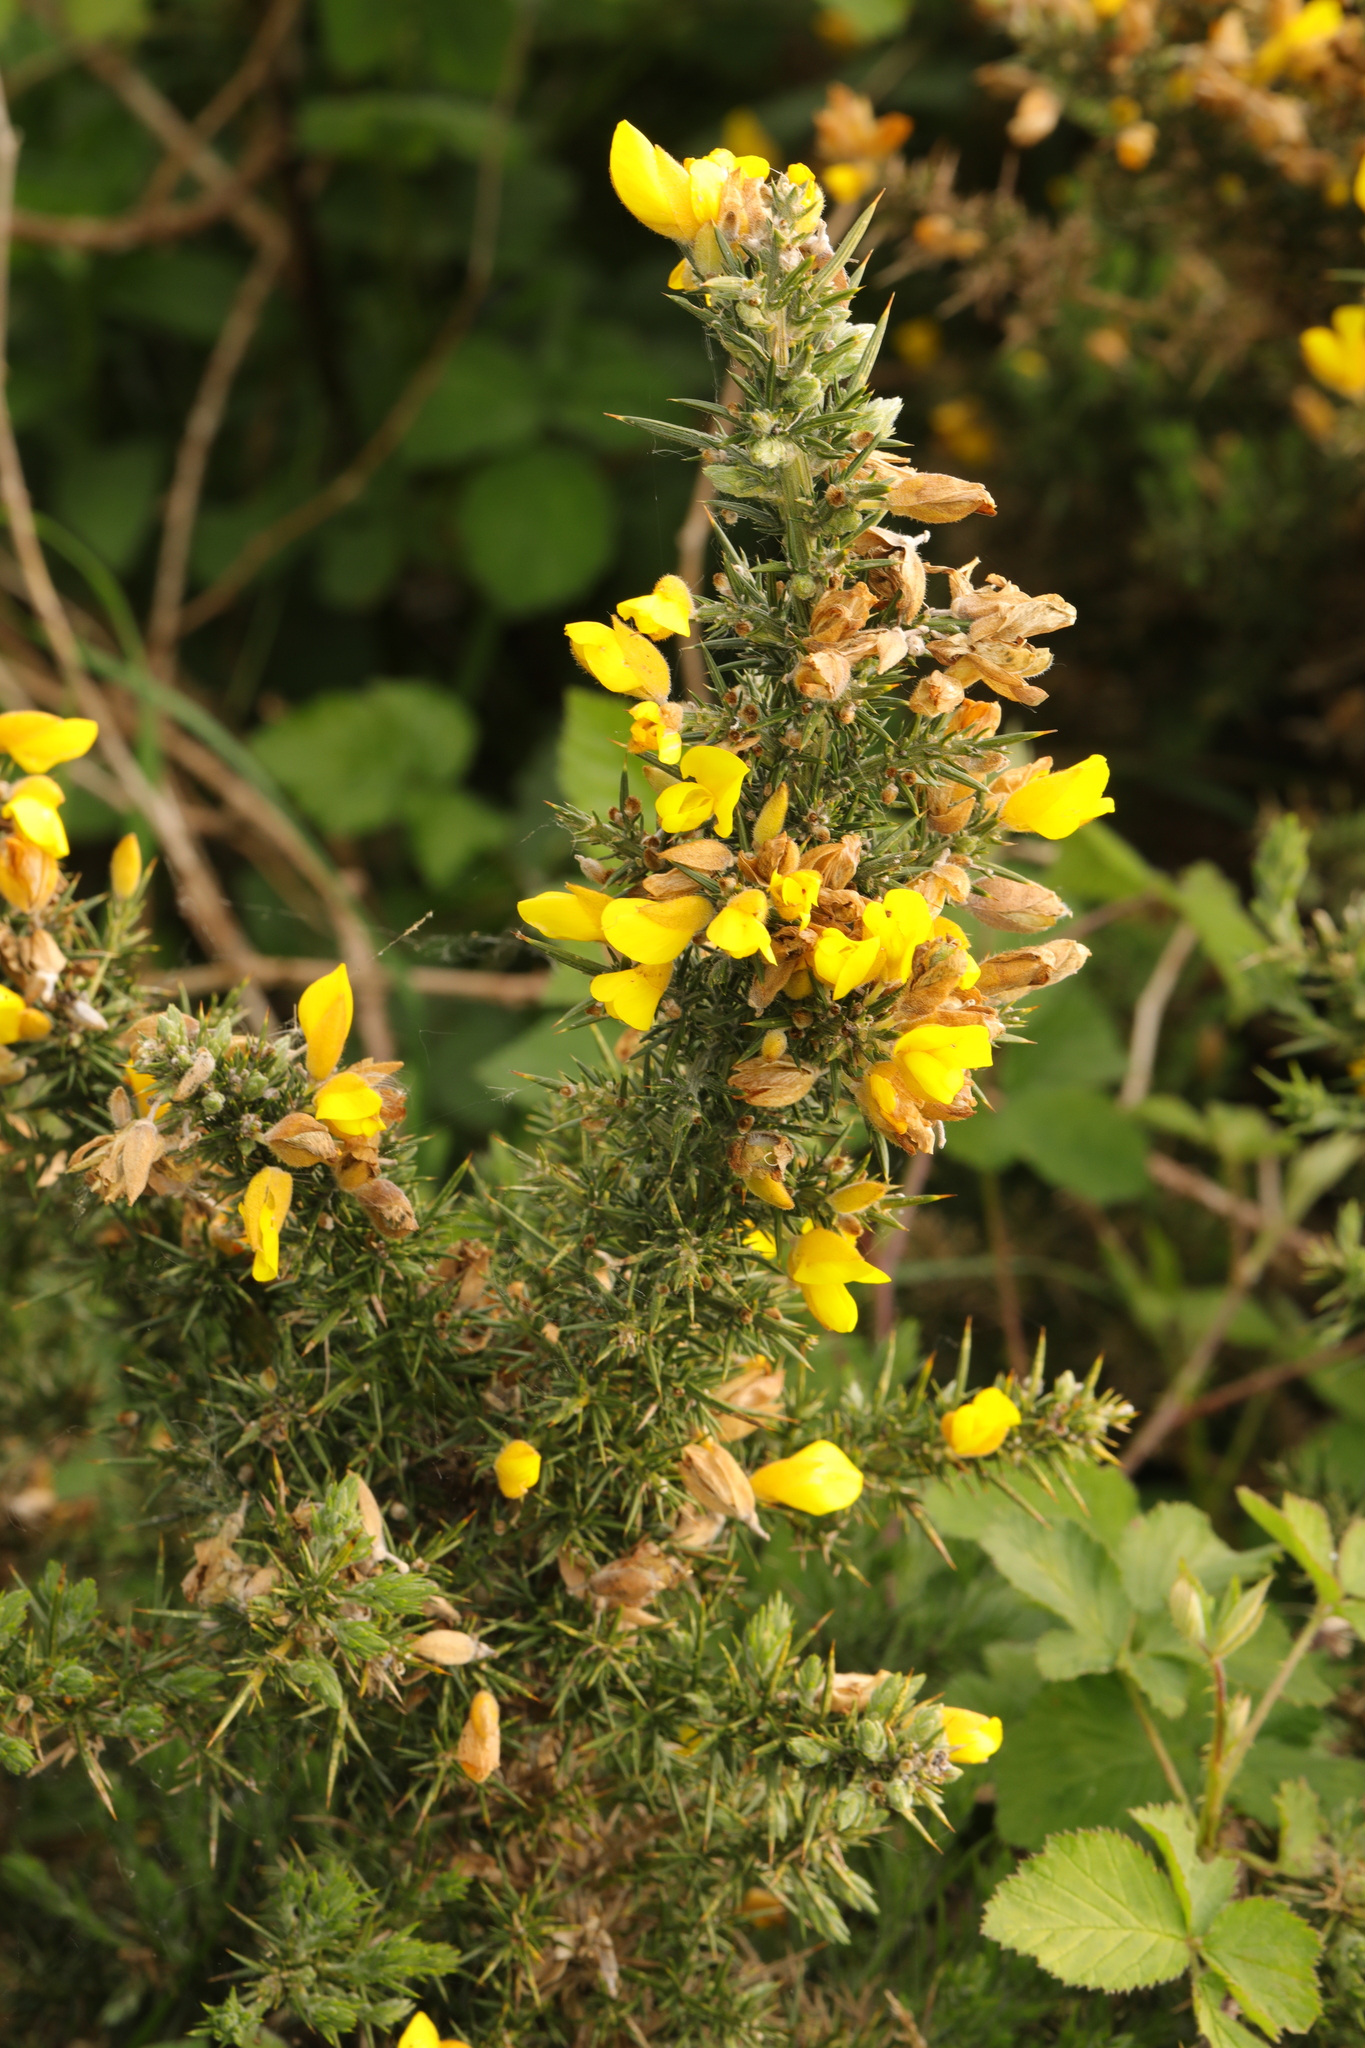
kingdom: Plantae
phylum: Tracheophyta
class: Magnoliopsida
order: Fabales
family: Fabaceae
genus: Ulex
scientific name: Ulex europaeus
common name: Common gorse
